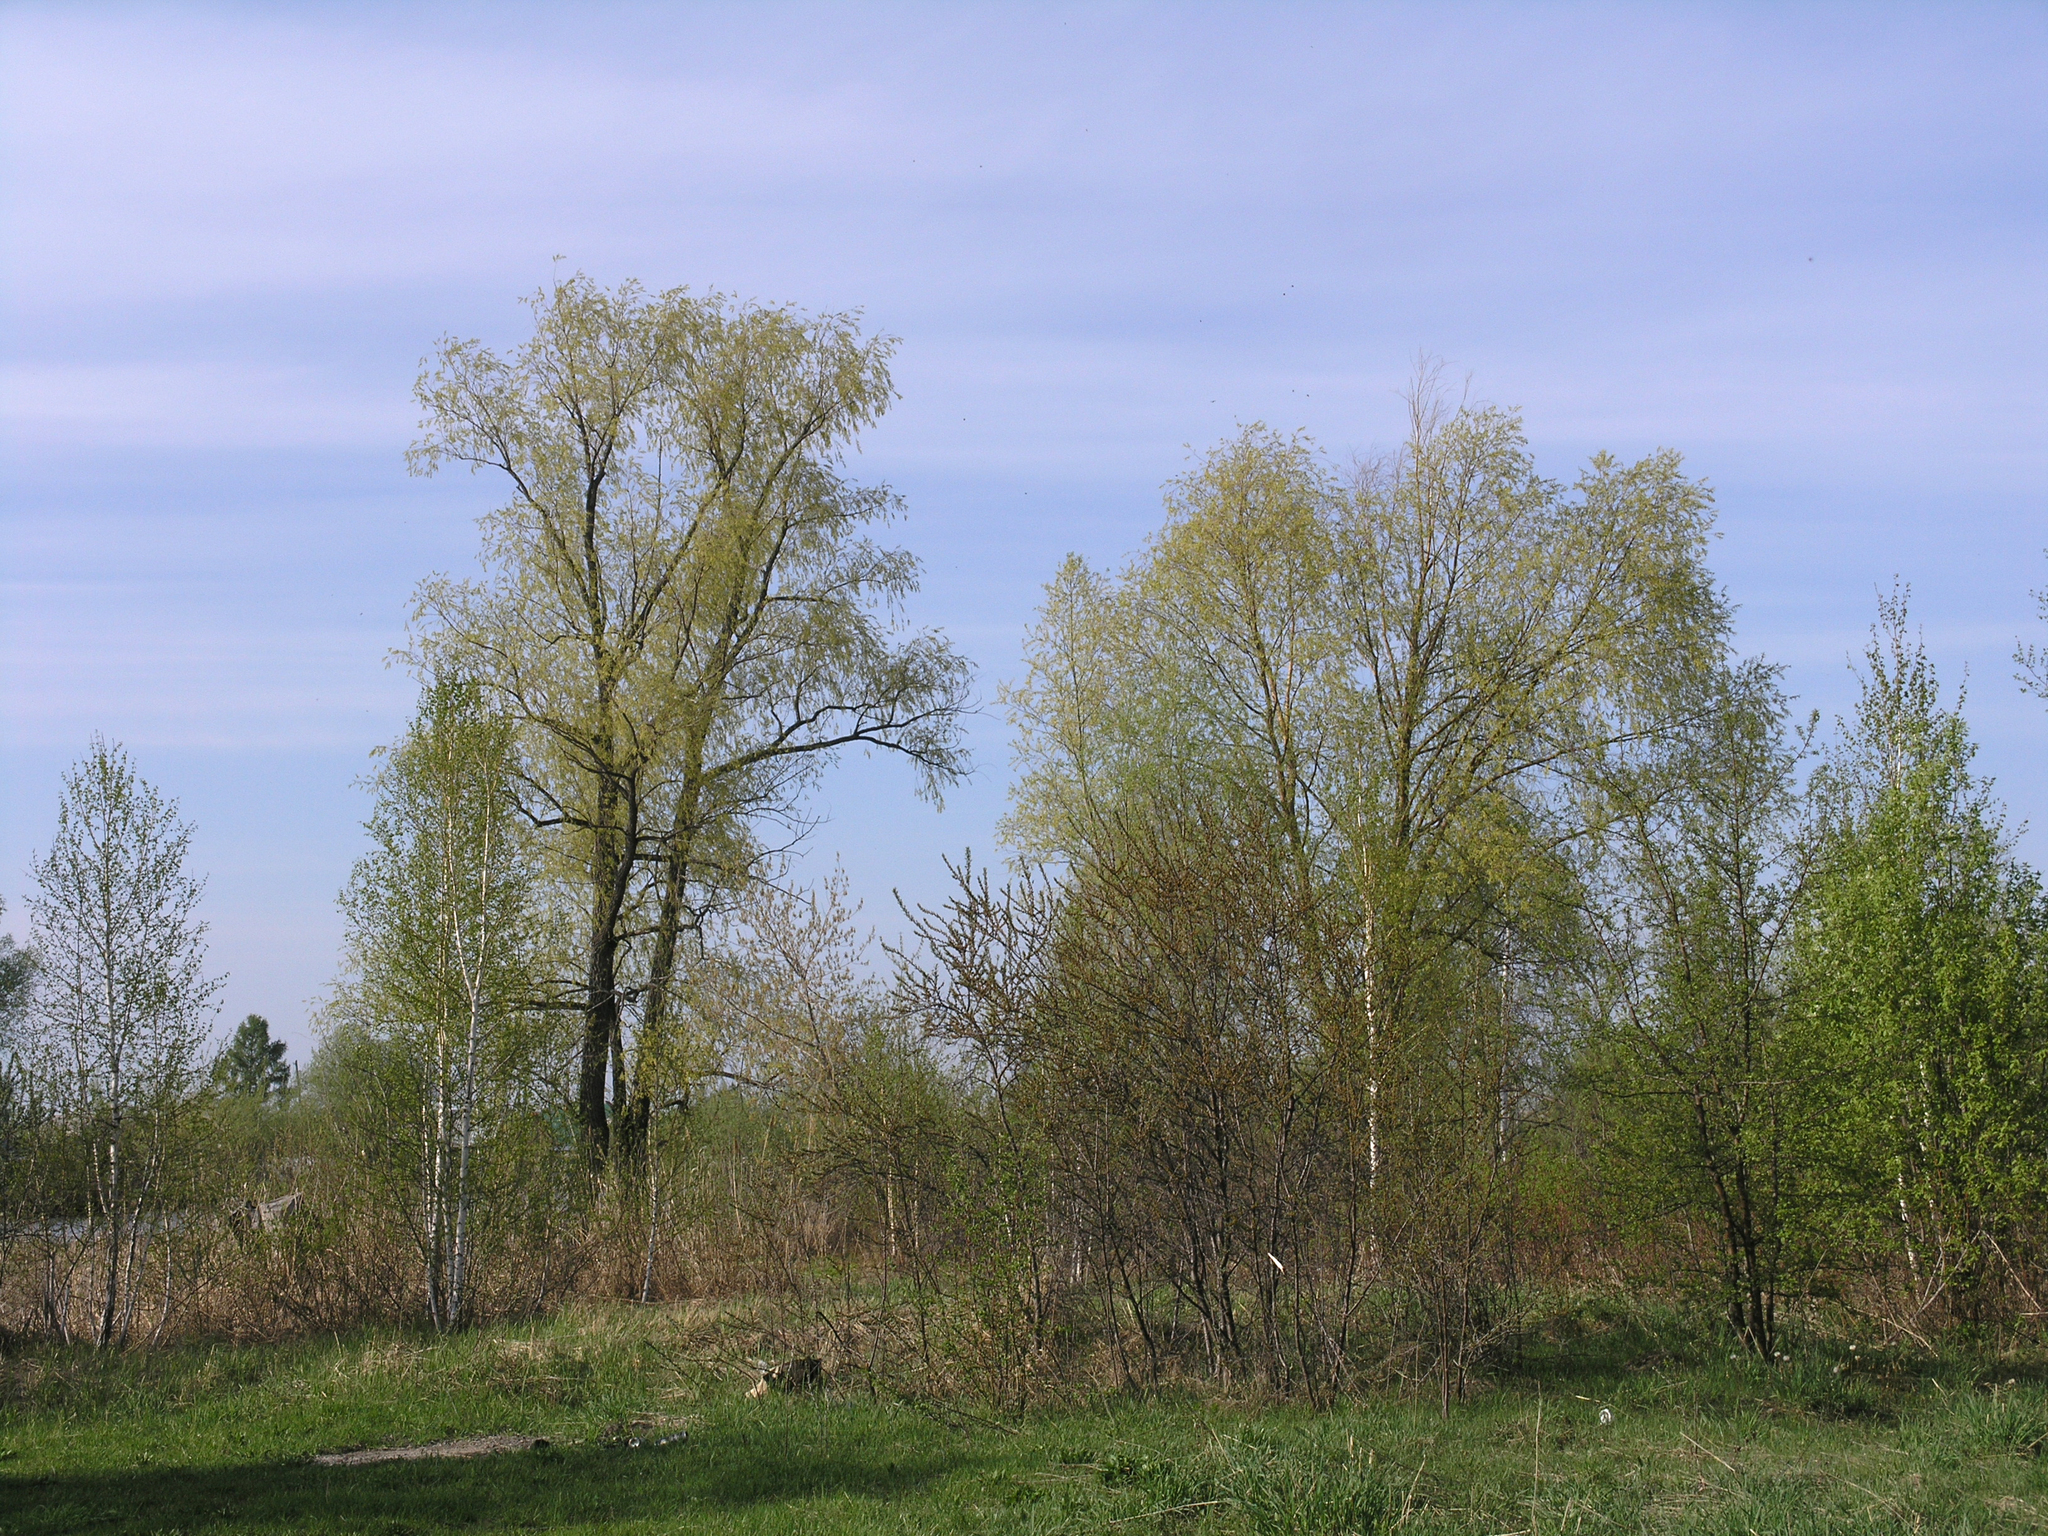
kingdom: Plantae
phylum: Tracheophyta
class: Magnoliopsida
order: Malpighiales
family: Salicaceae
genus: Salix
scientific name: Salix alba
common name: White willow
